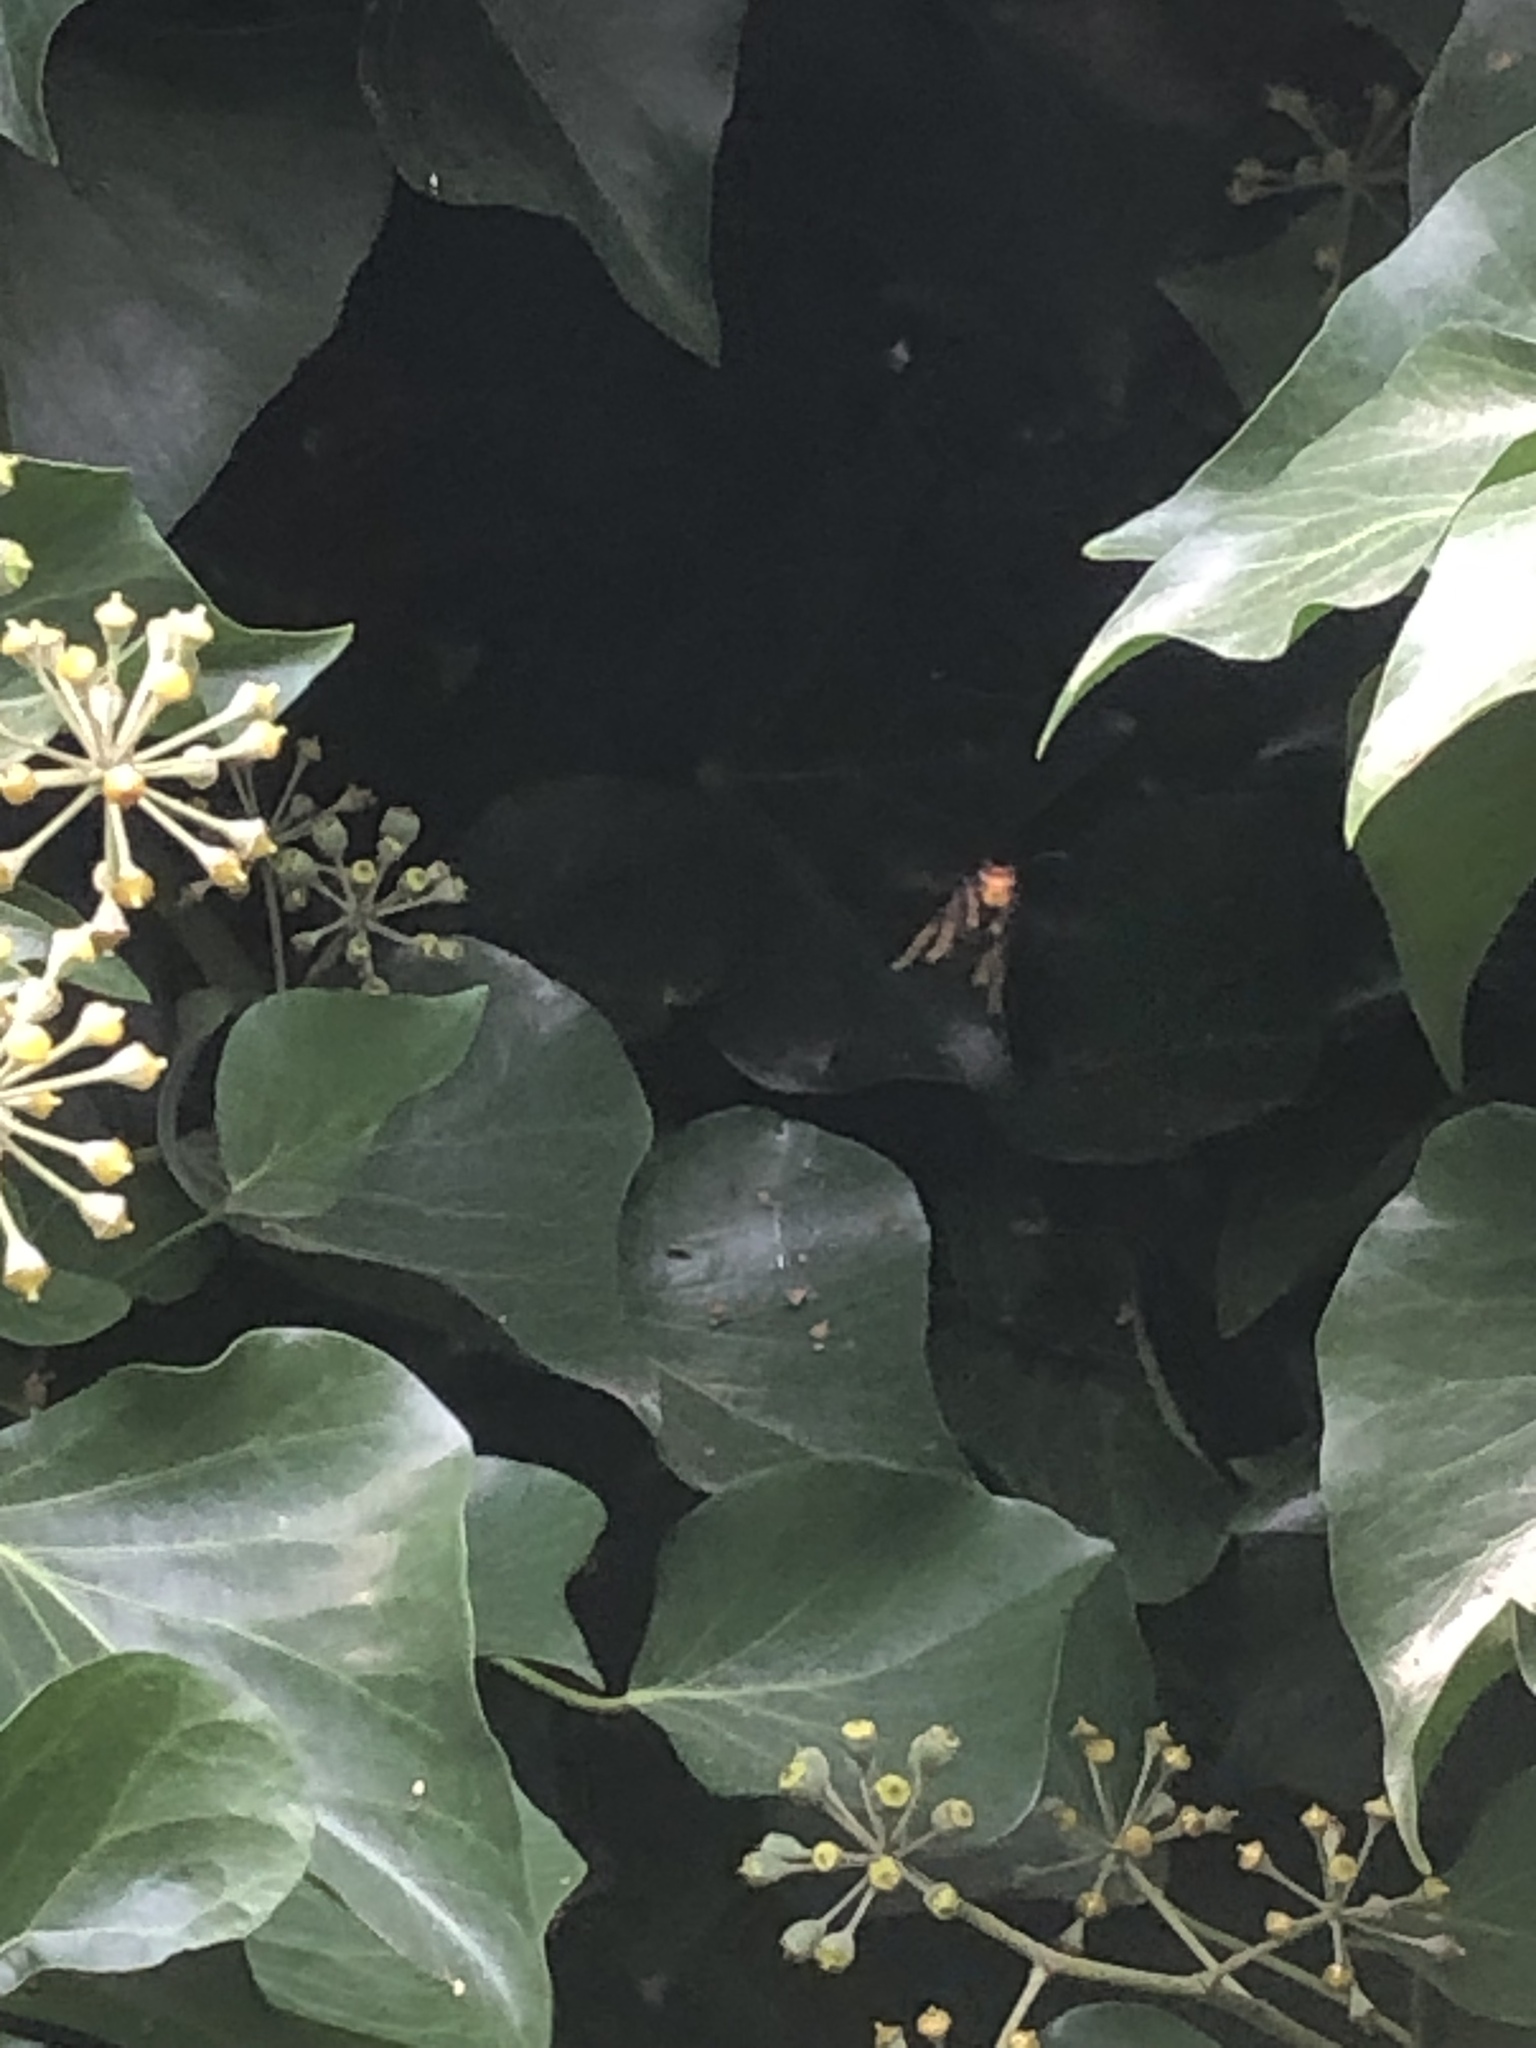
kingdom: Animalia
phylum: Arthropoda
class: Insecta
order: Hymenoptera
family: Vespidae
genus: Vespa
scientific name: Vespa velutina
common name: Asian hornet
